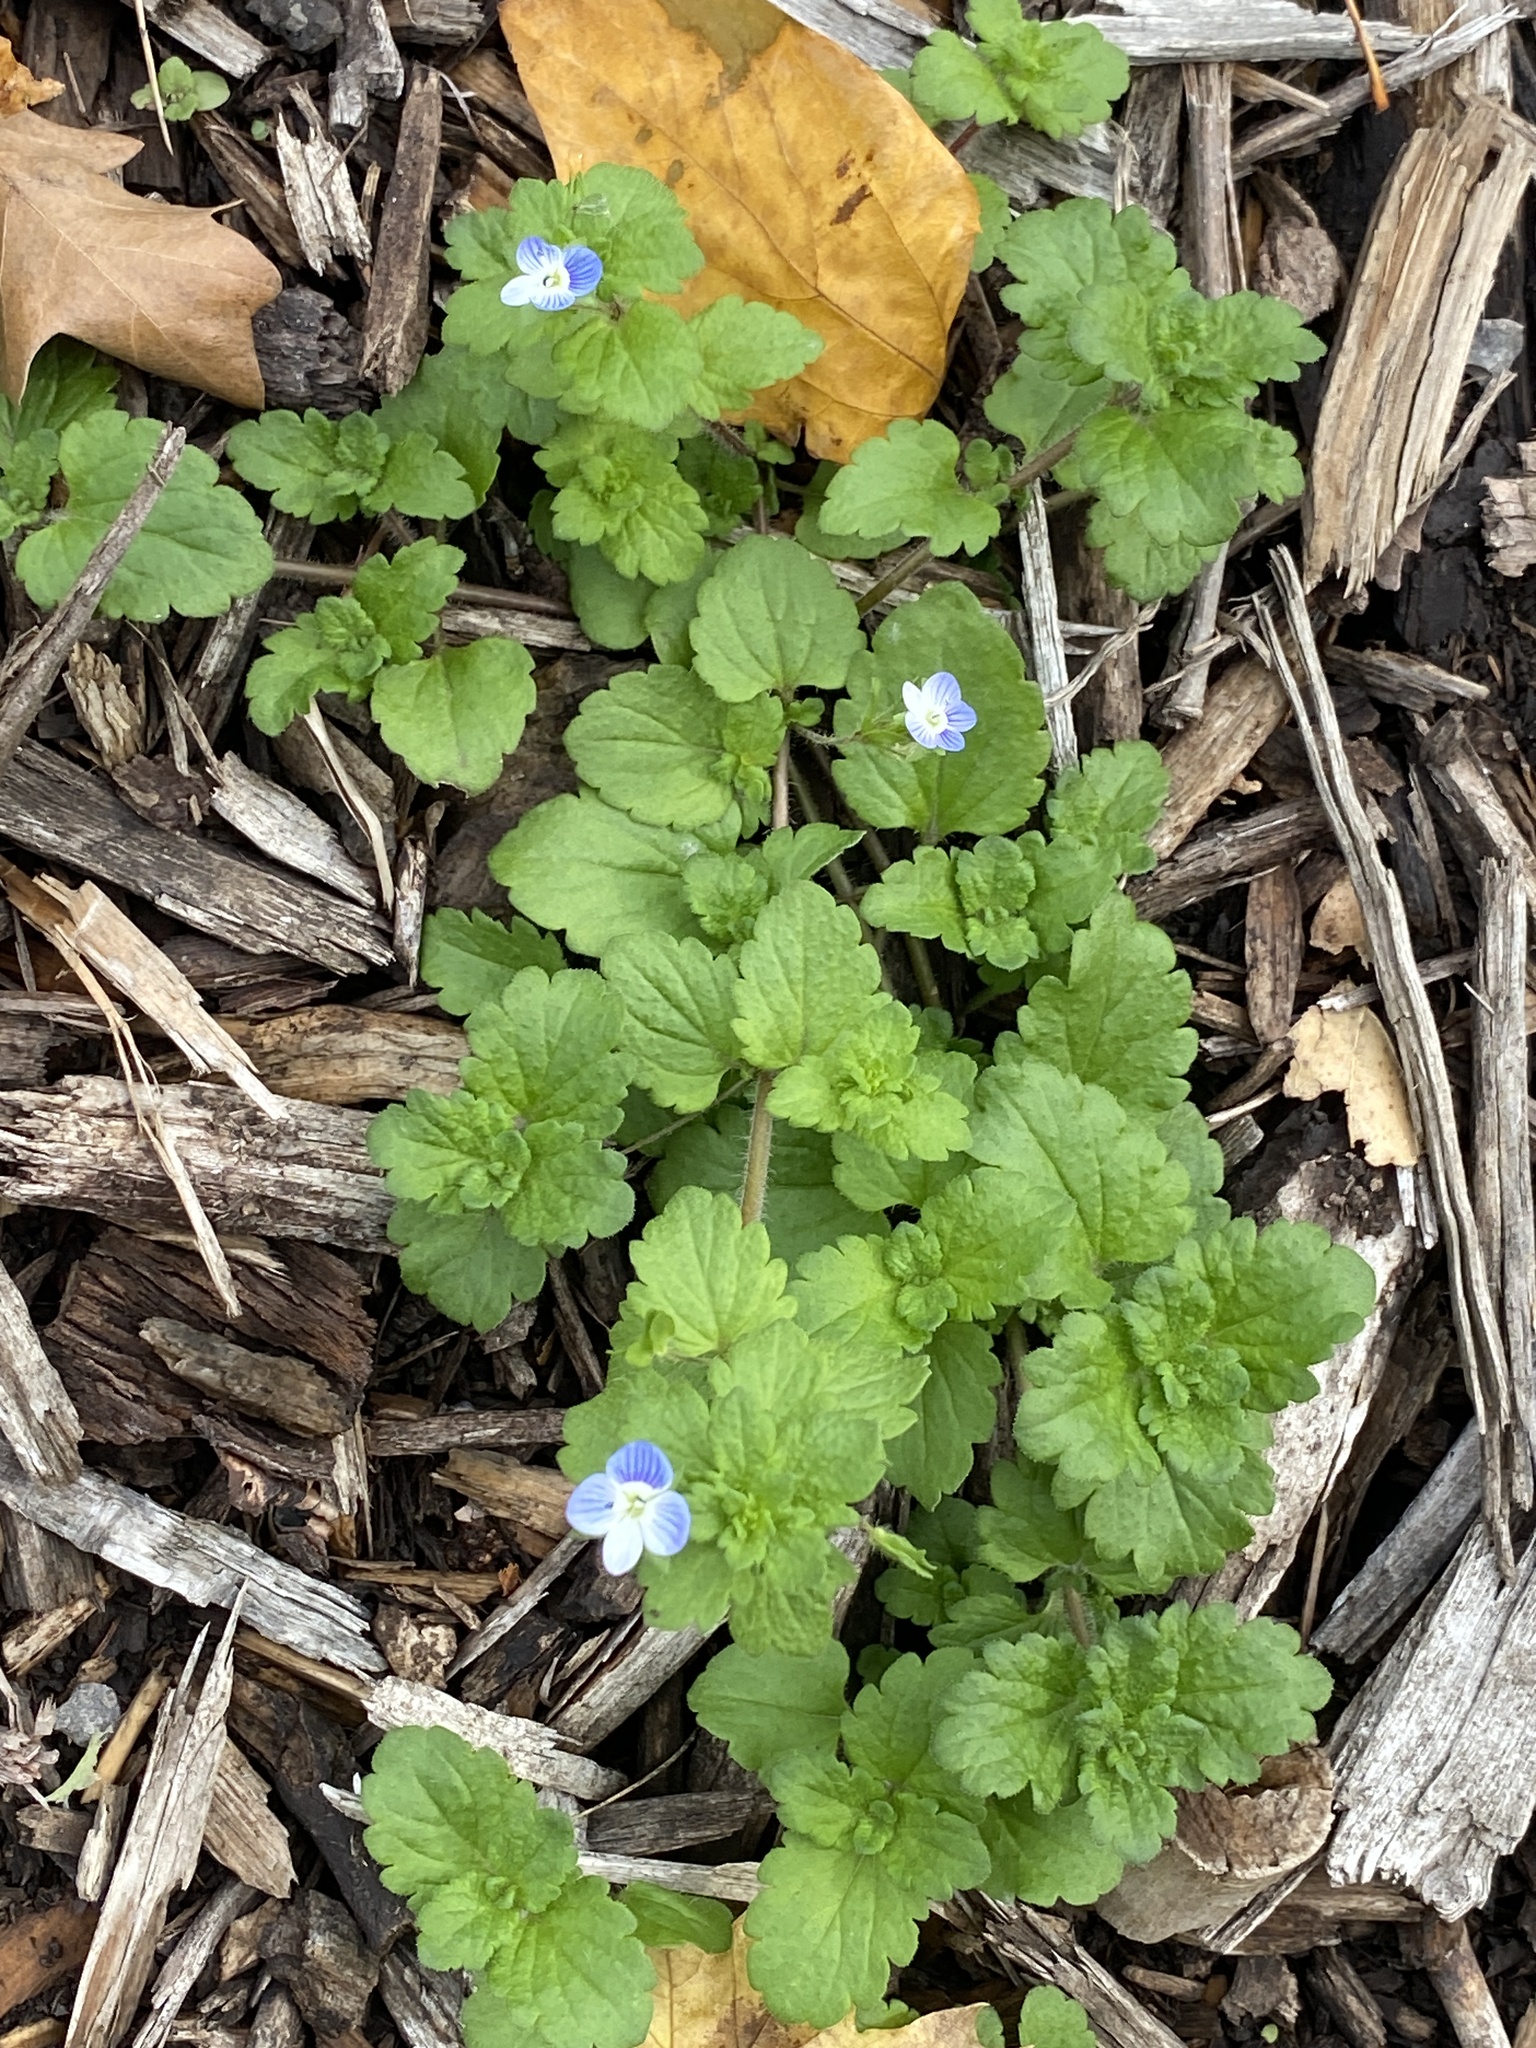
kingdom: Plantae
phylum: Tracheophyta
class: Magnoliopsida
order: Lamiales
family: Plantaginaceae
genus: Veronica
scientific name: Veronica persica
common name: Common field-speedwell
